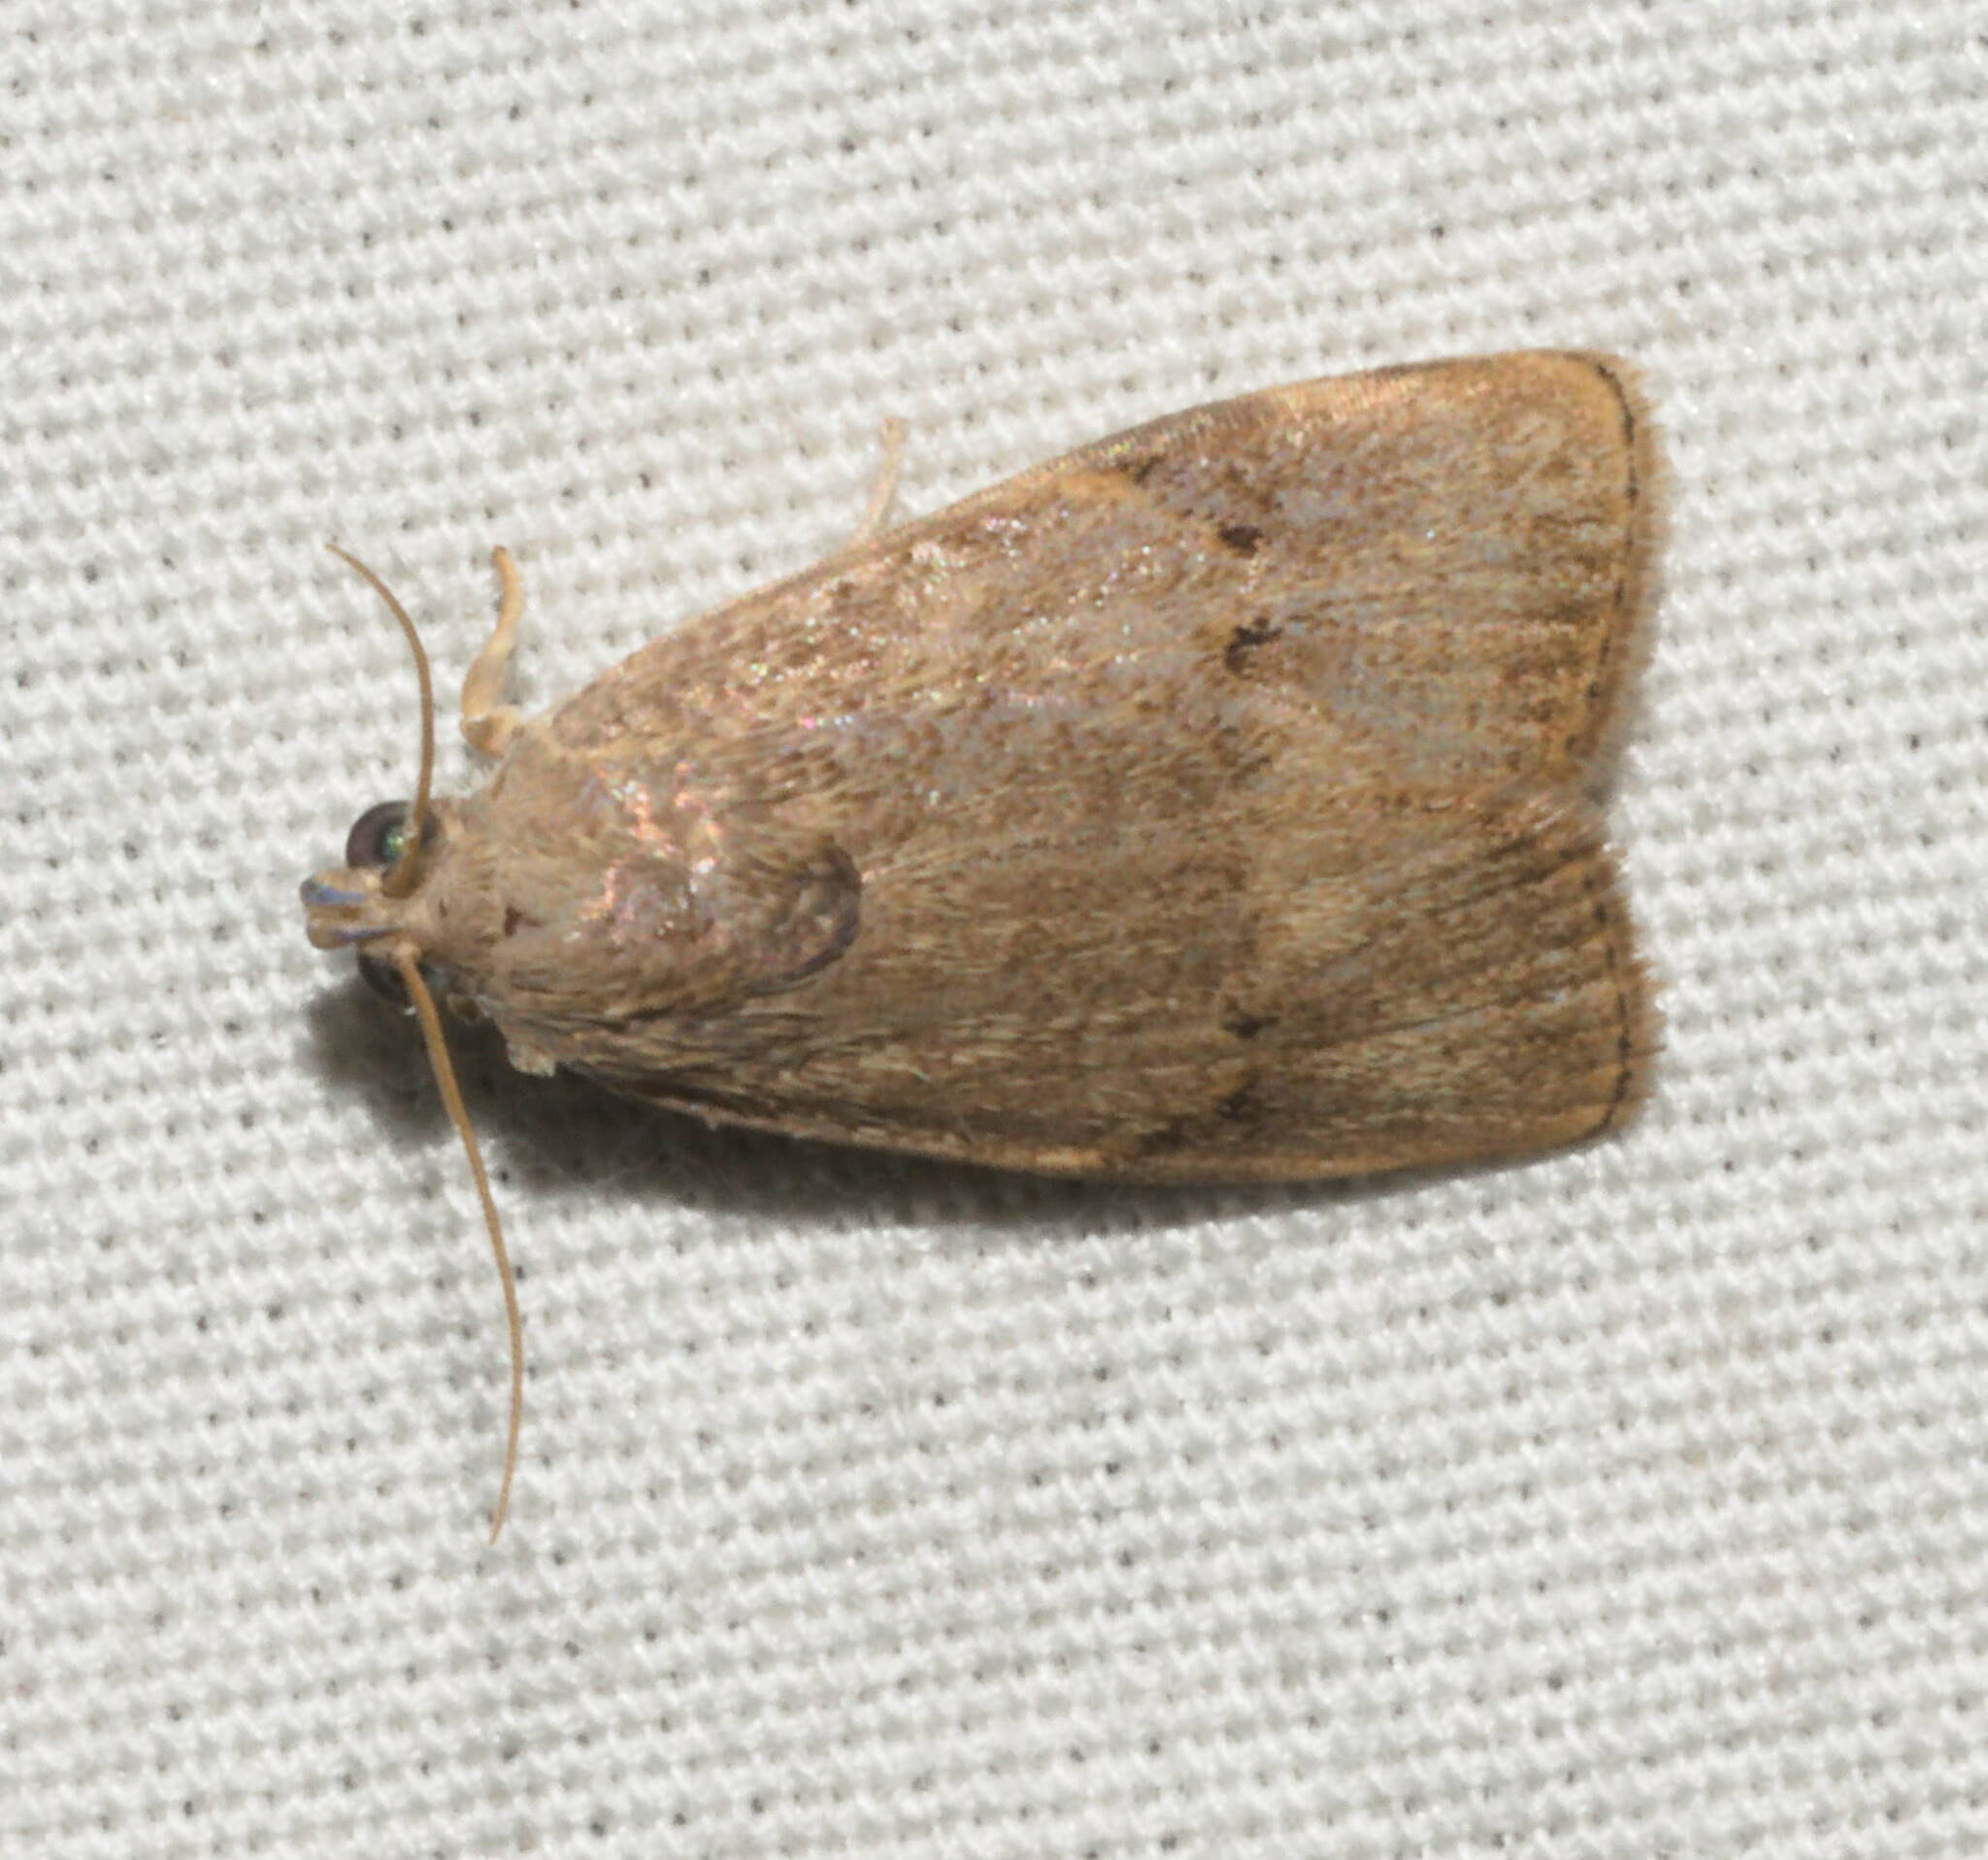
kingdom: Animalia
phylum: Arthropoda
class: Insecta
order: Lepidoptera
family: Immidae
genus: Imma
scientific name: Imma mylias
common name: Moth
